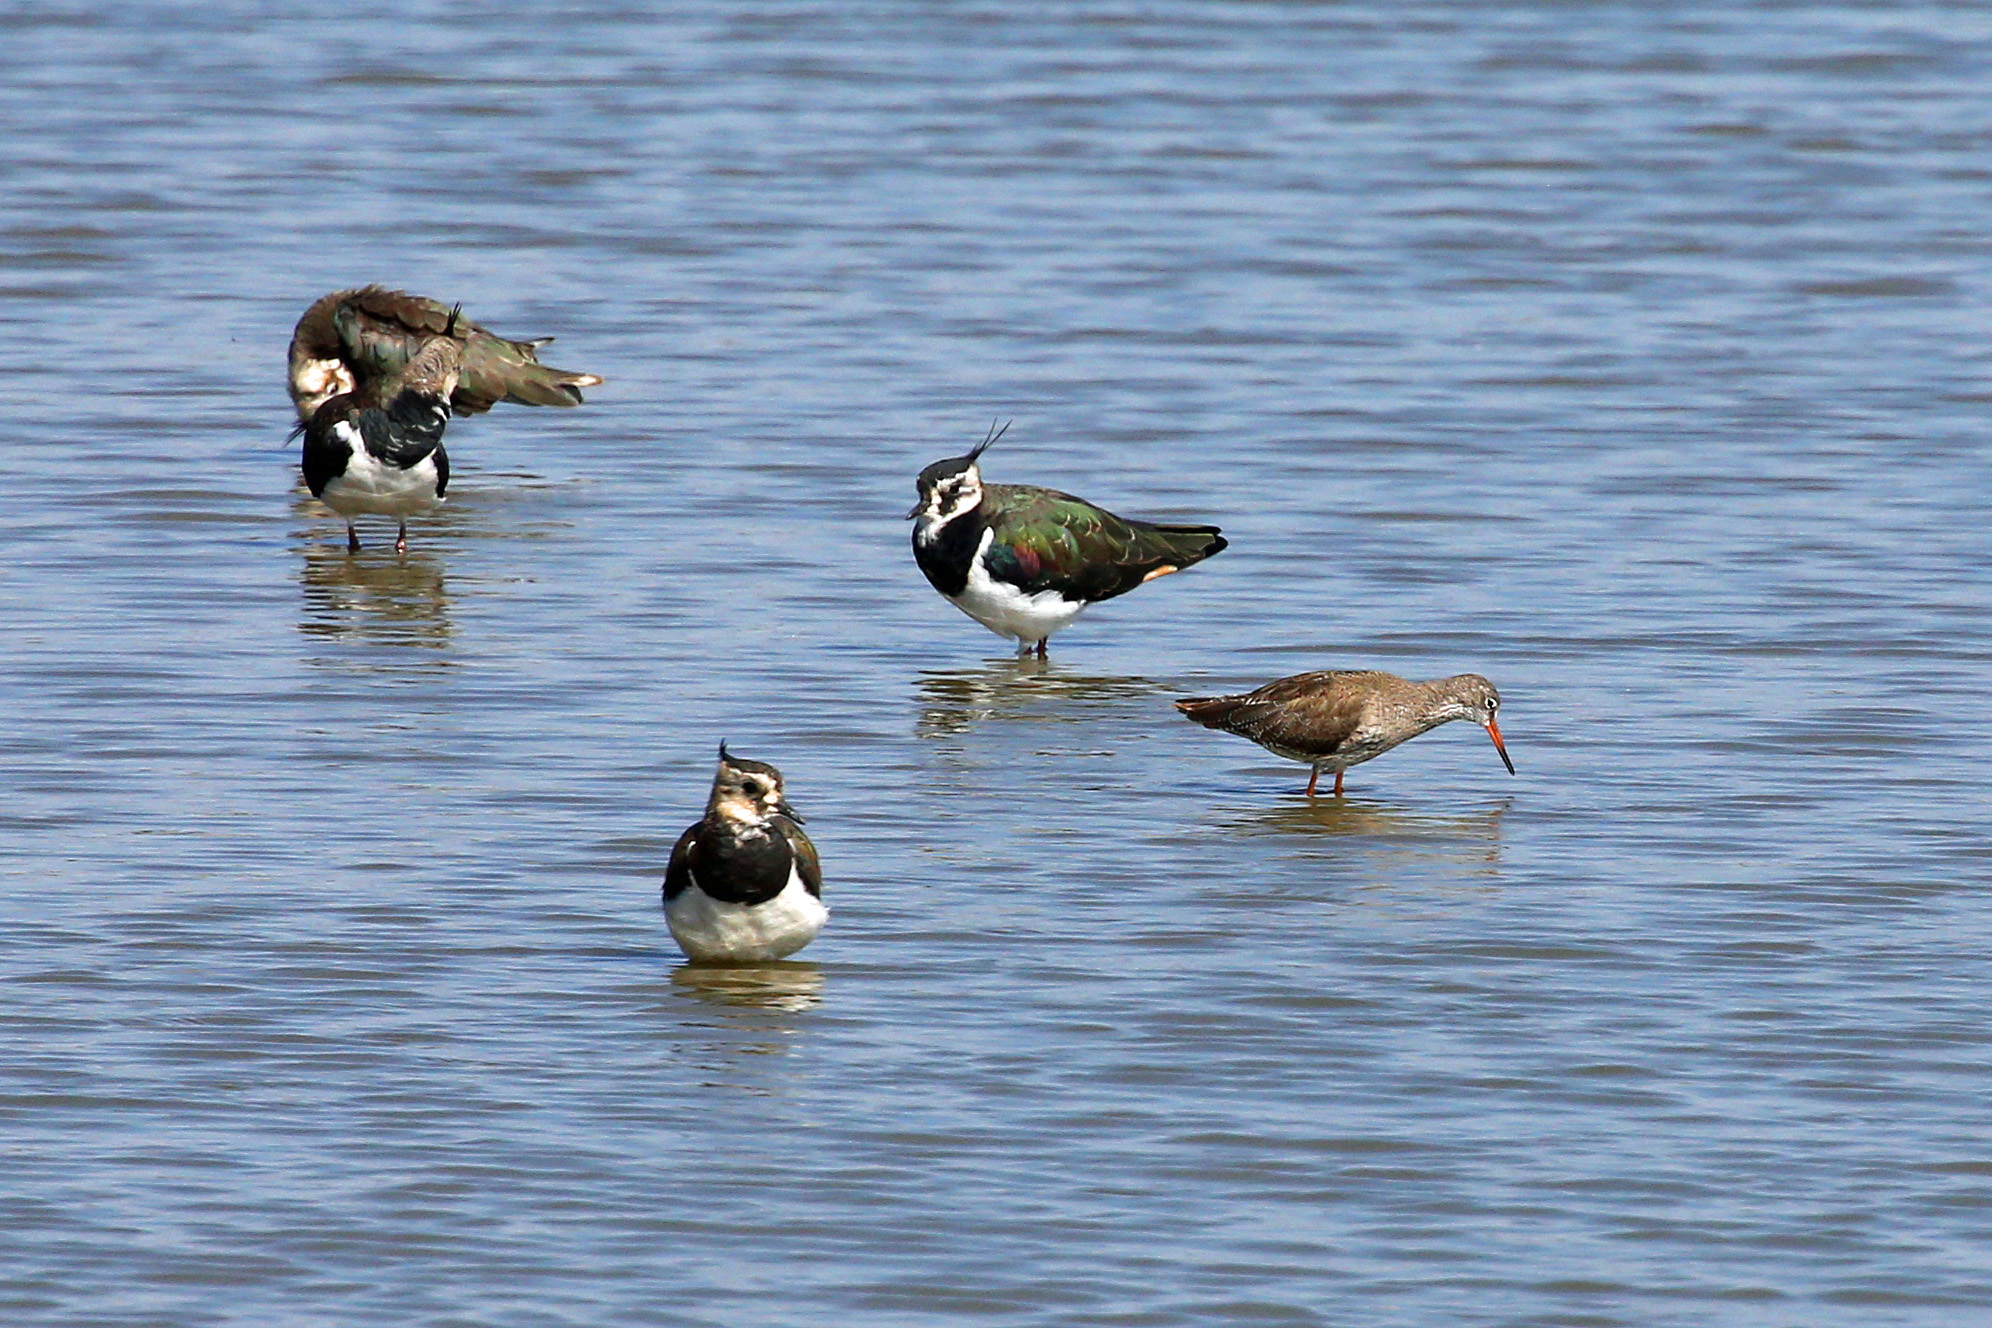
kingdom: Animalia
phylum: Chordata
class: Aves
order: Charadriiformes
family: Charadriidae
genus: Vanellus
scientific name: Vanellus vanellus
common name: Northern lapwing
